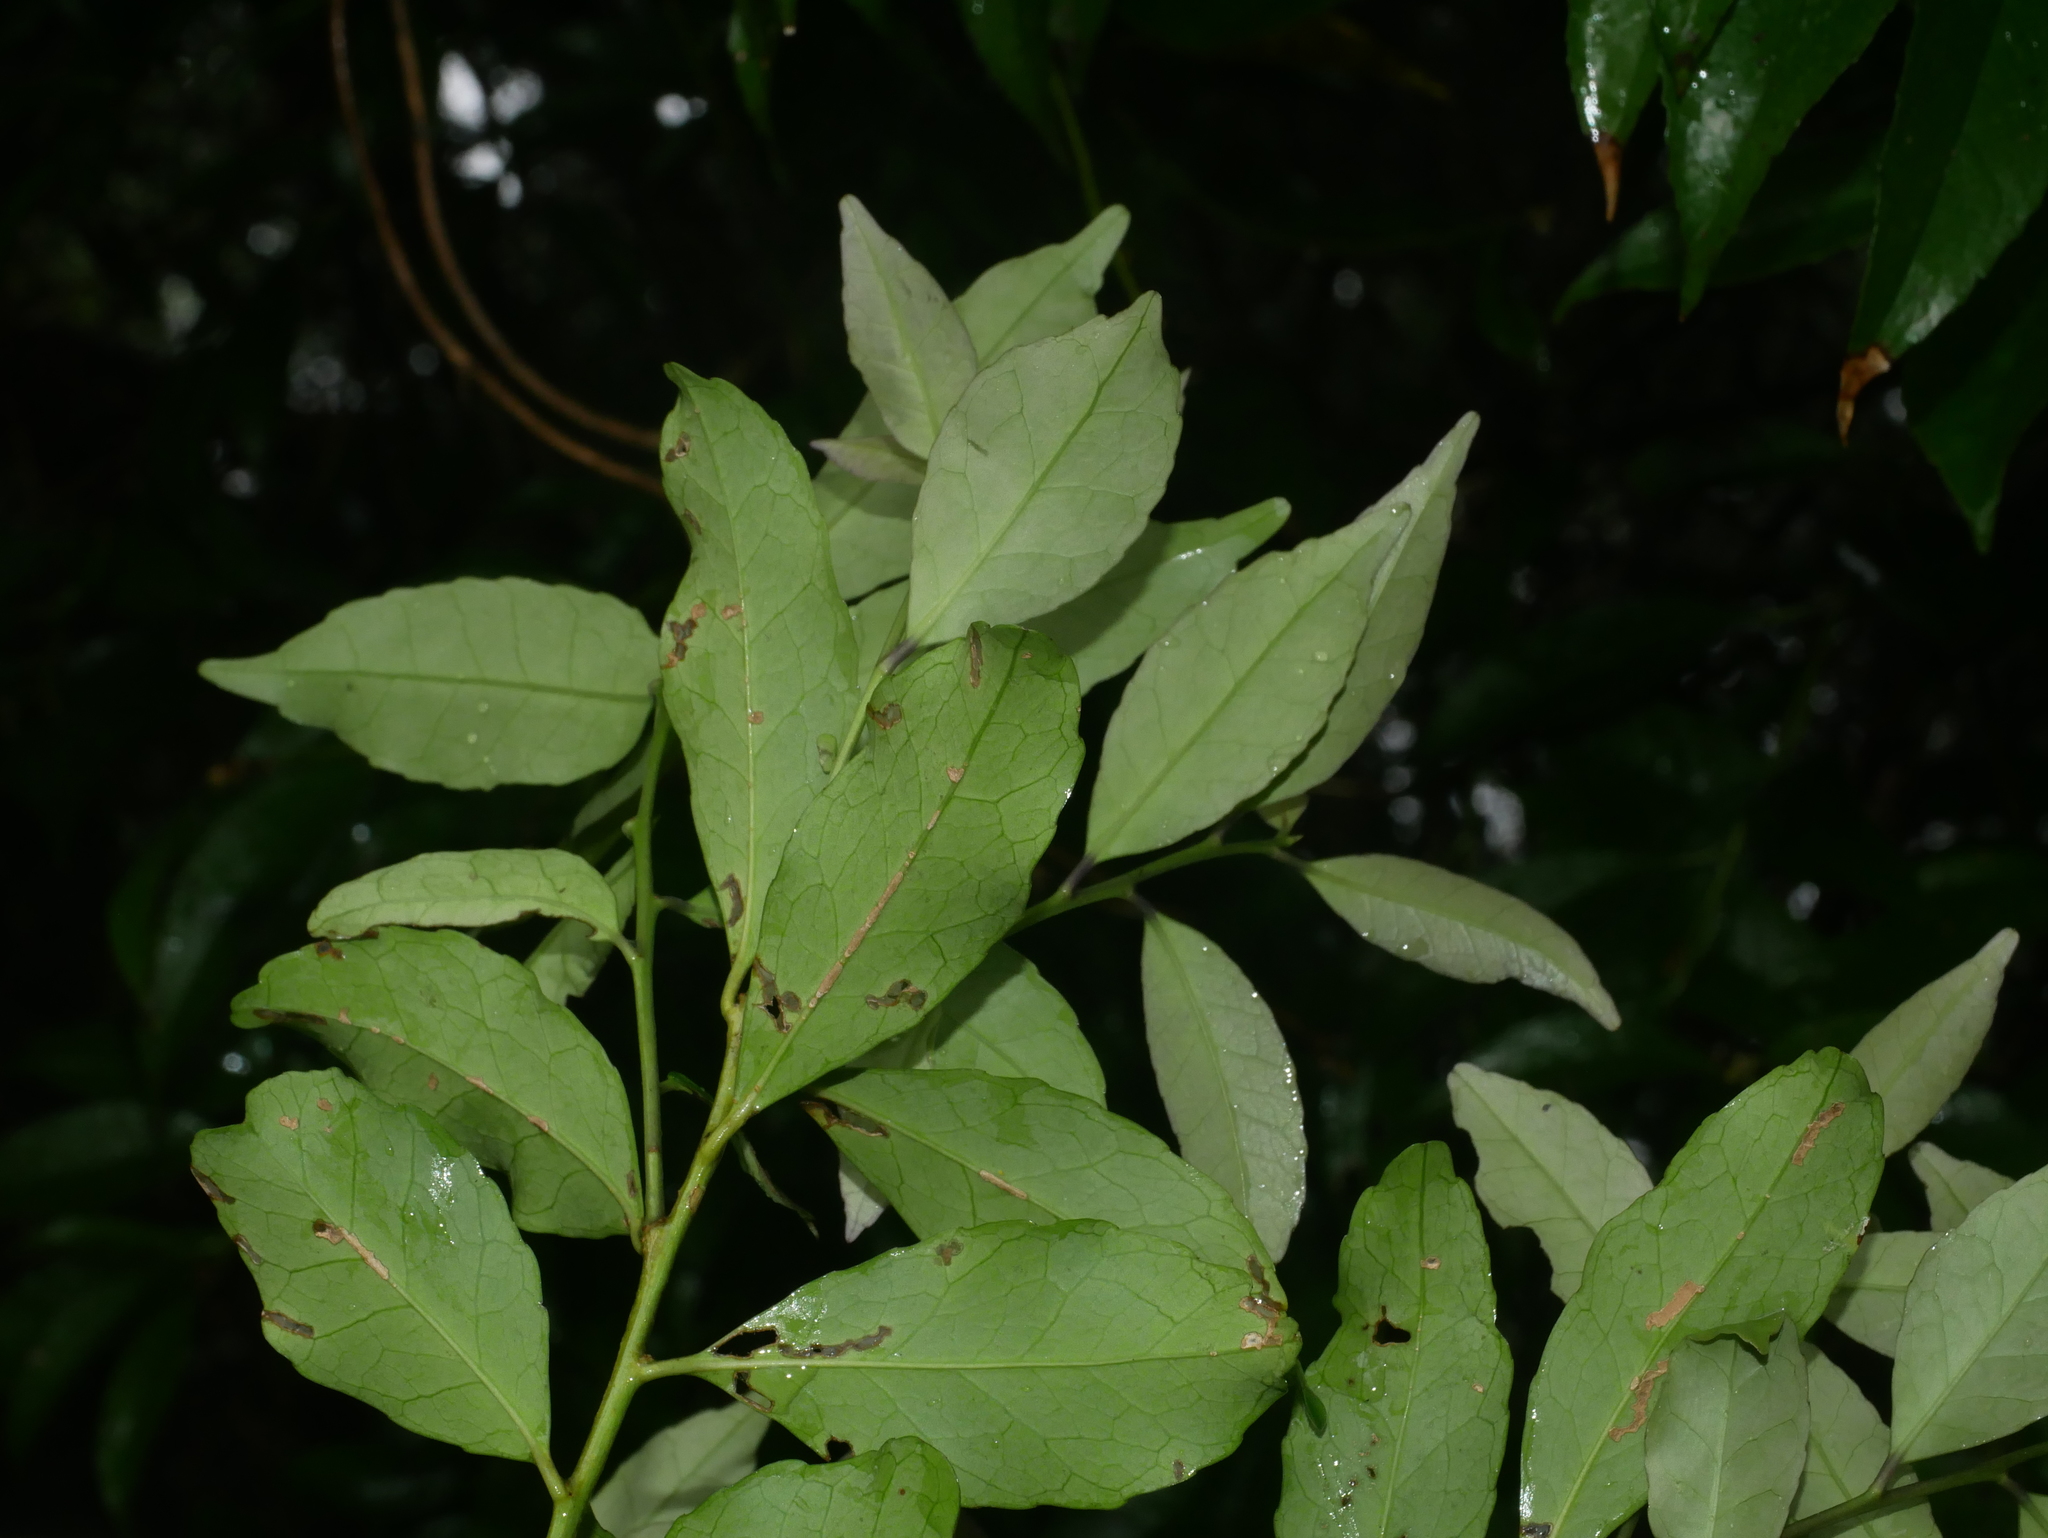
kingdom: Plantae
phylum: Tracheophyta
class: Magnoliopsida
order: Aquifoliales
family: Aquifoliaceae
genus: Ilex
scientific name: Ilex uraiensis
